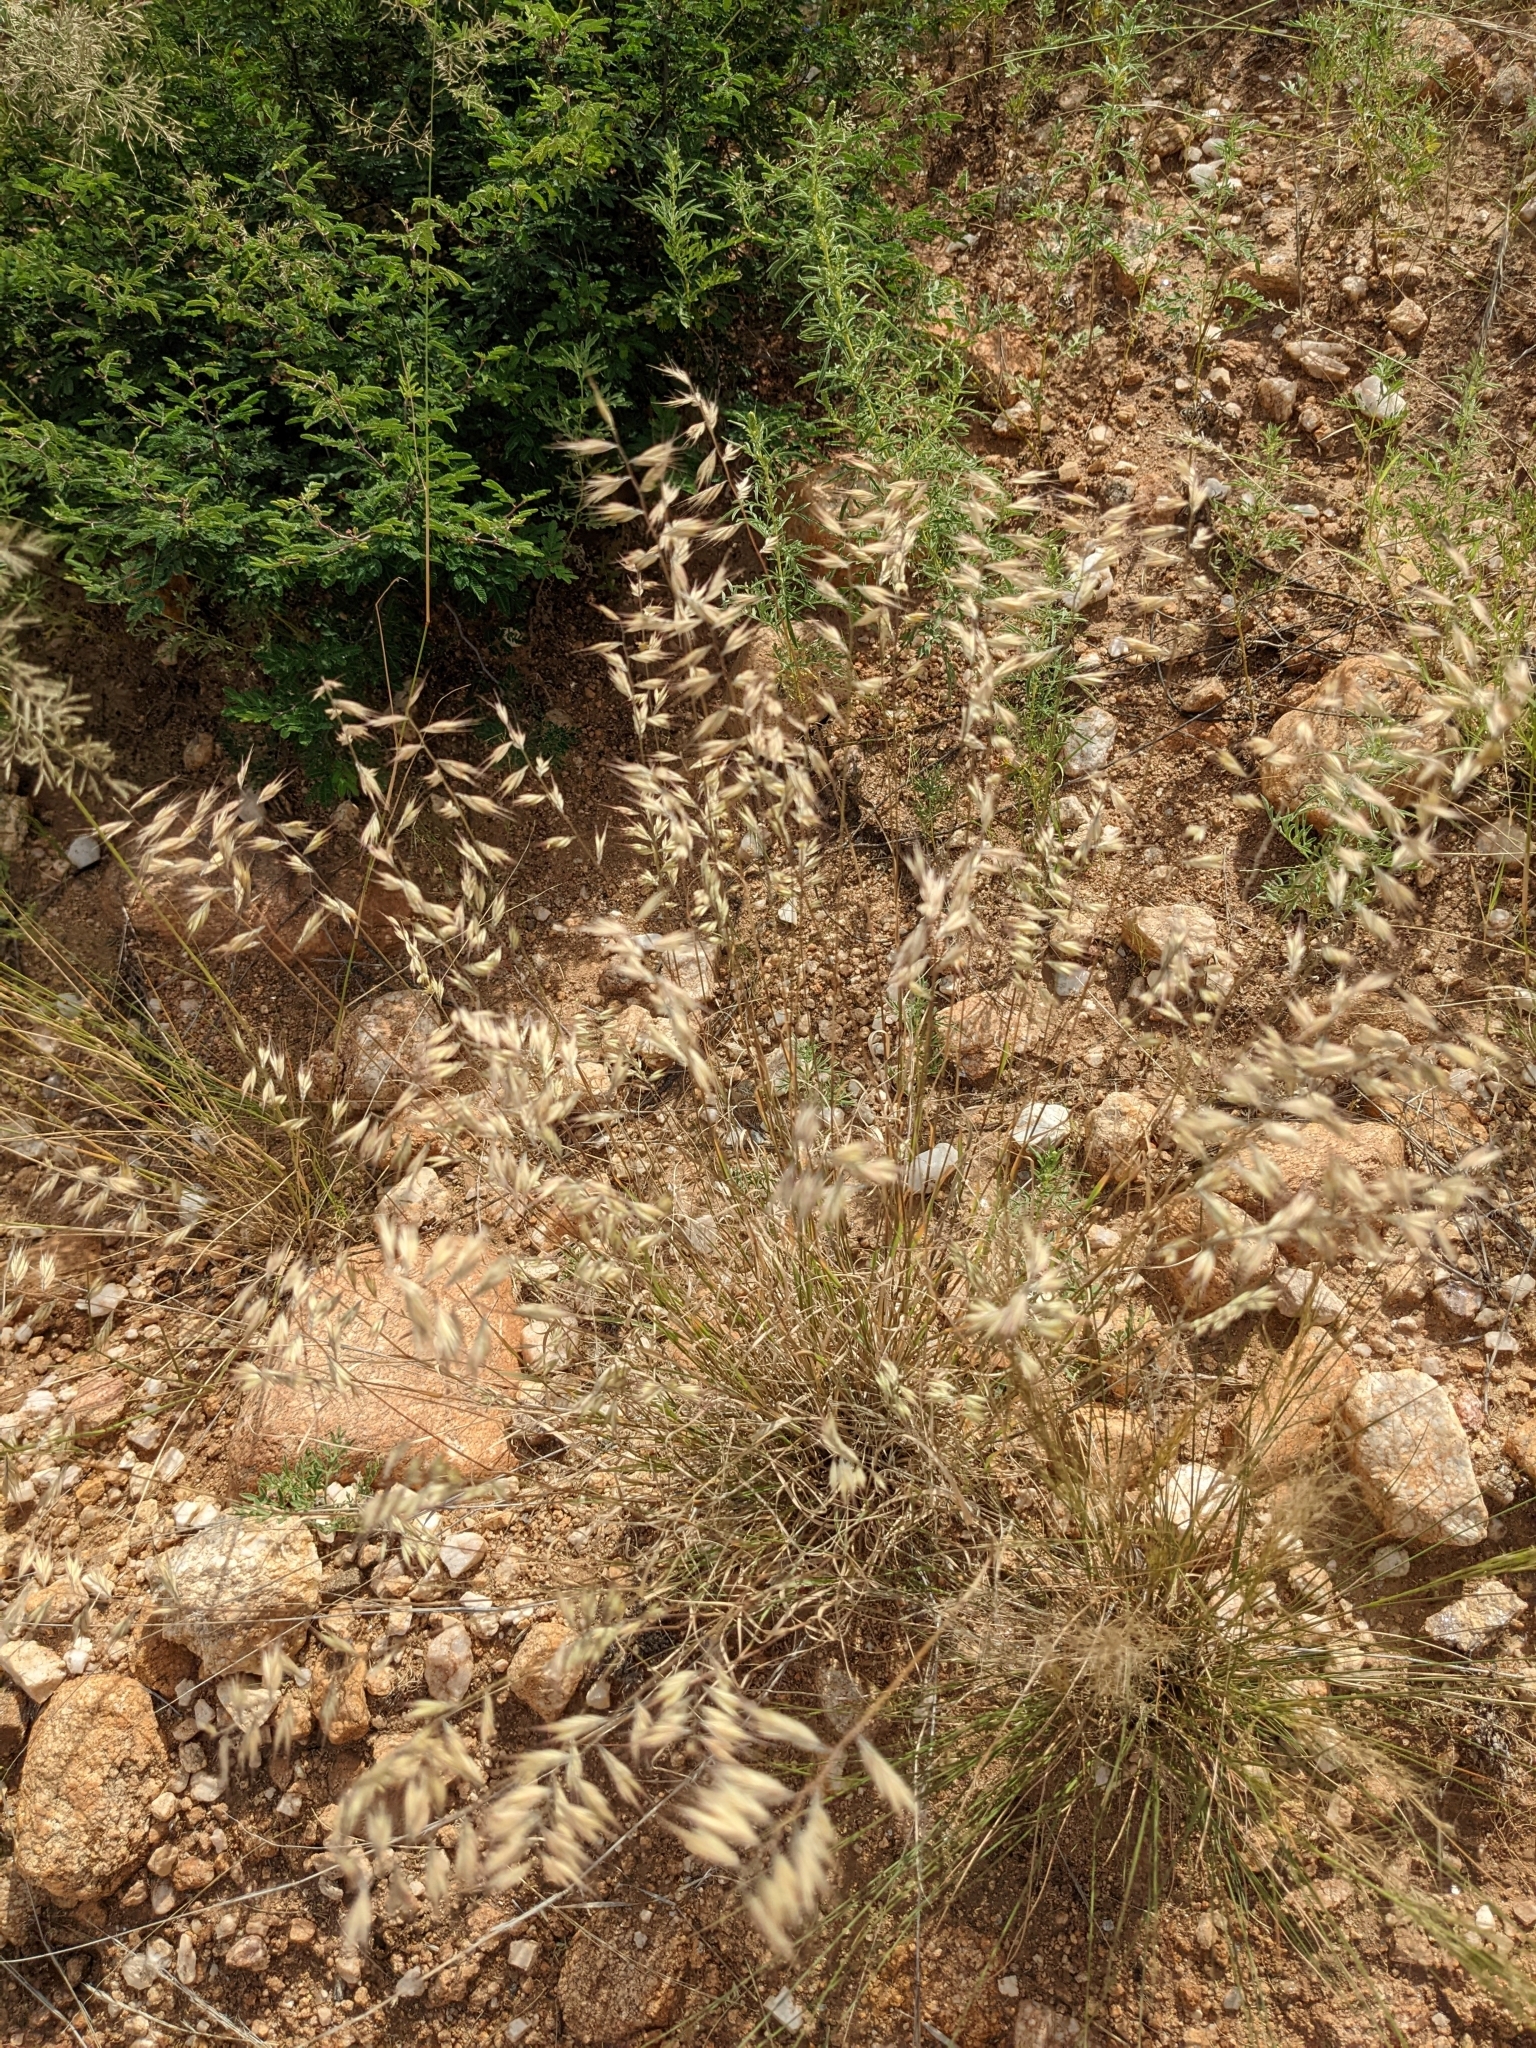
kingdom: Plantae
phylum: Tracheophyta
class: Liliopsida
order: Poales
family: Poaceae
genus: Bouteloua
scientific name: Bouteloua repens
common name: Slender grama
